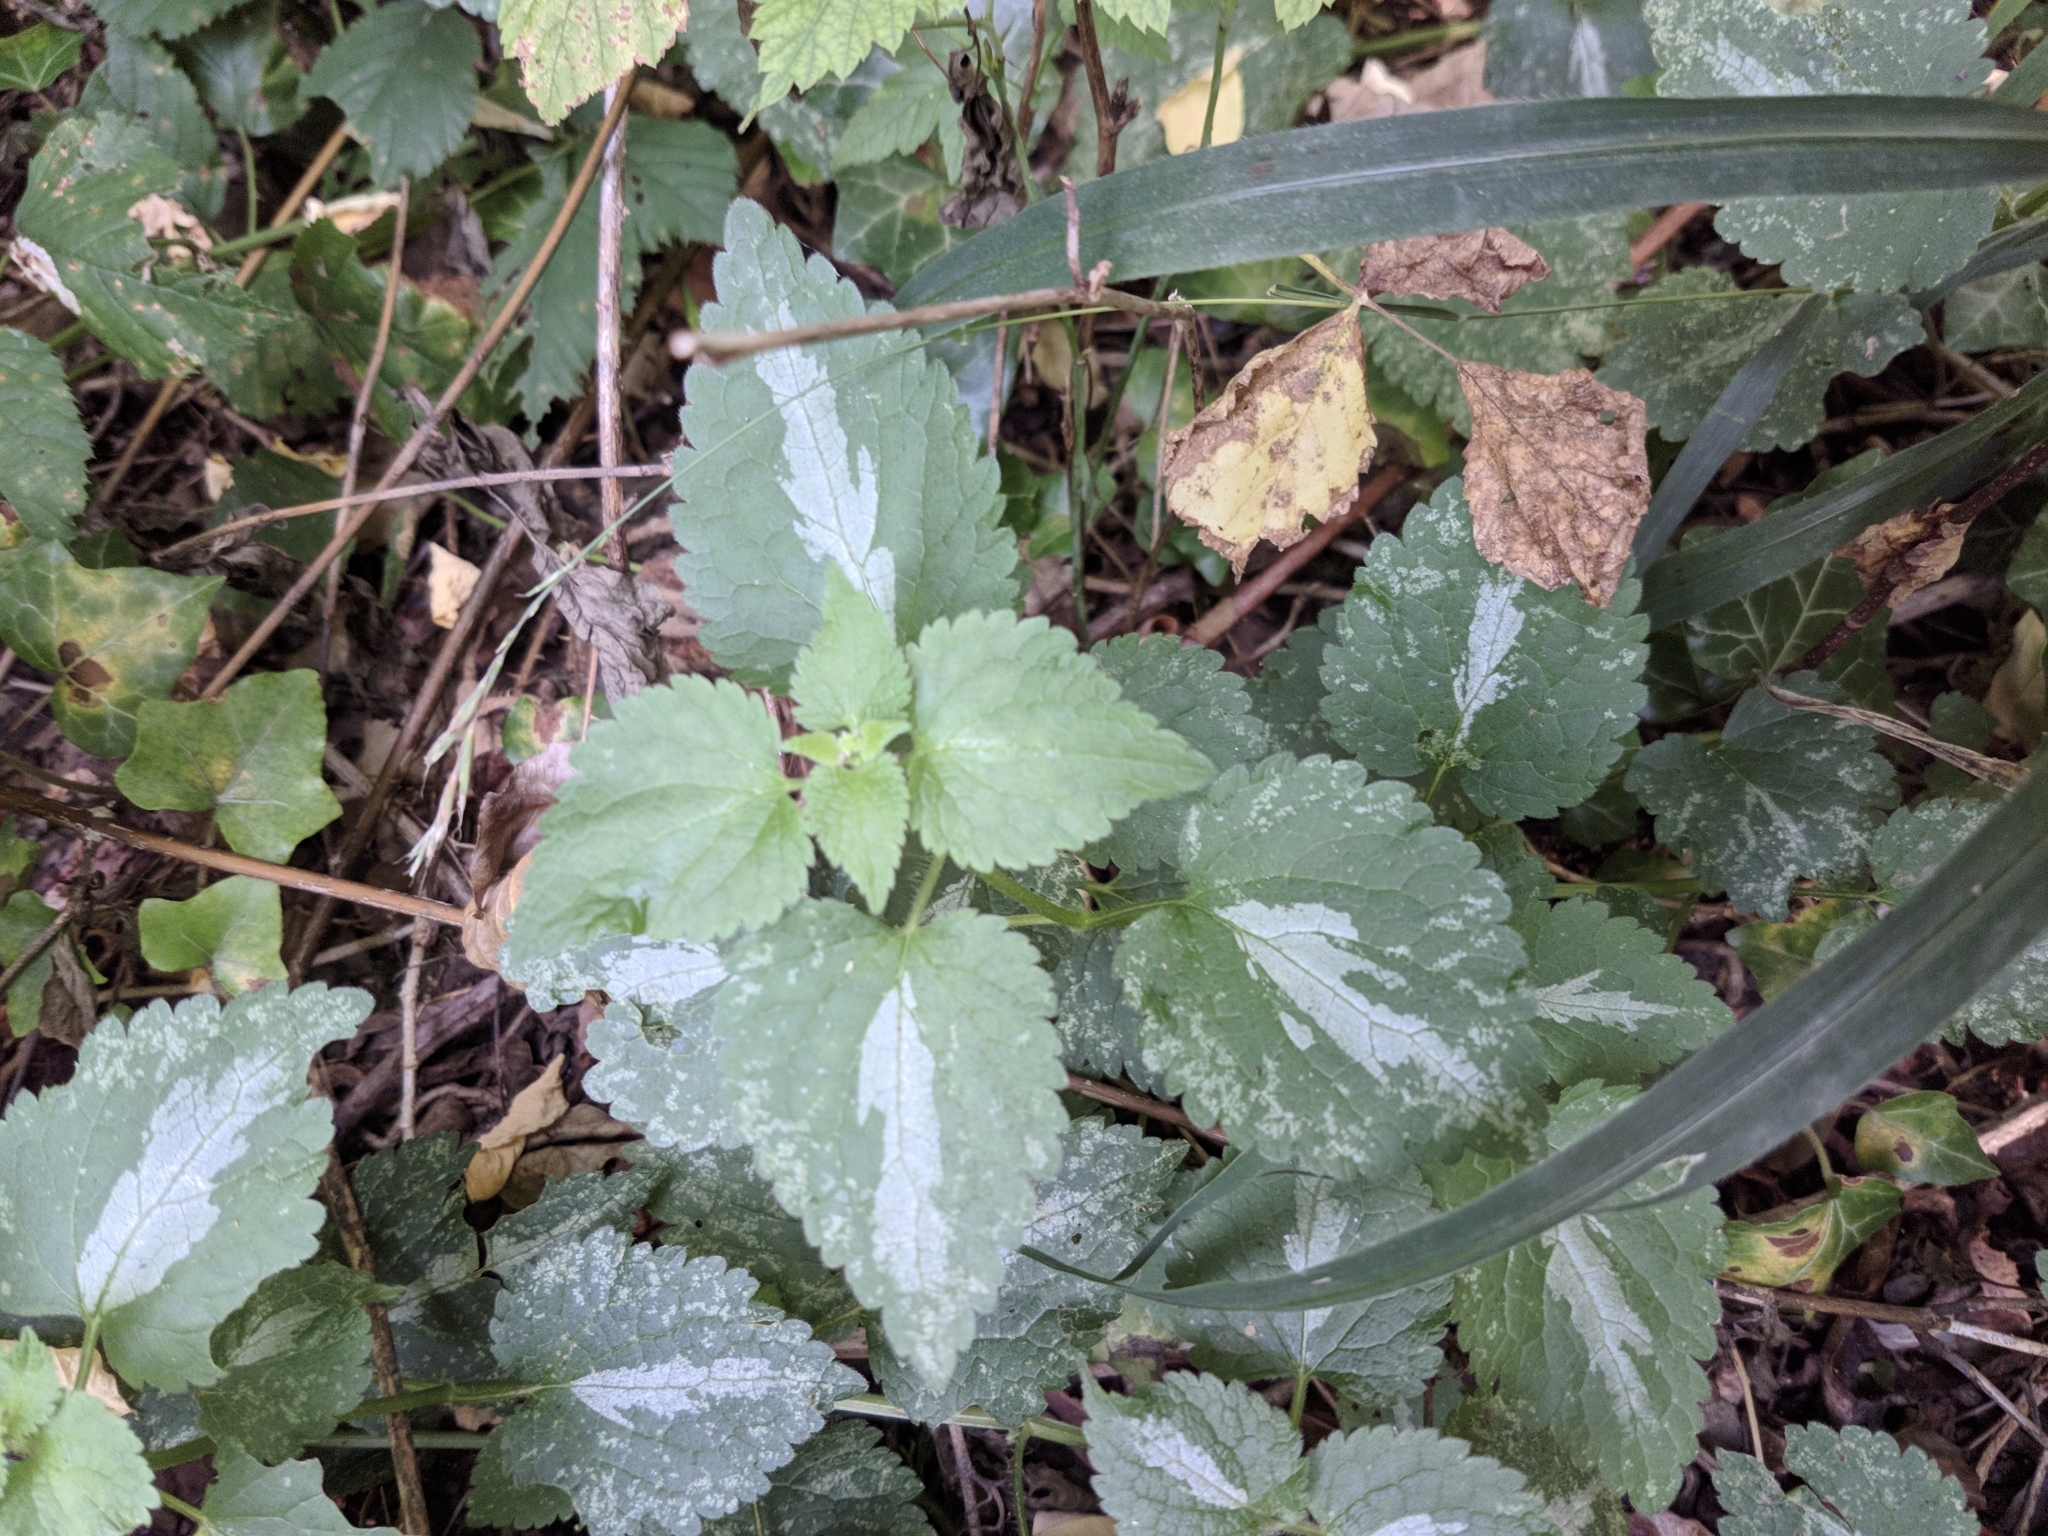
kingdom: Plantae
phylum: Tracheophyta
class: Magnoliopsida
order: Lamiales
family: Lamiaceae
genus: Lamium
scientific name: Lamium maculatum
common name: Spotted dead-nettle
